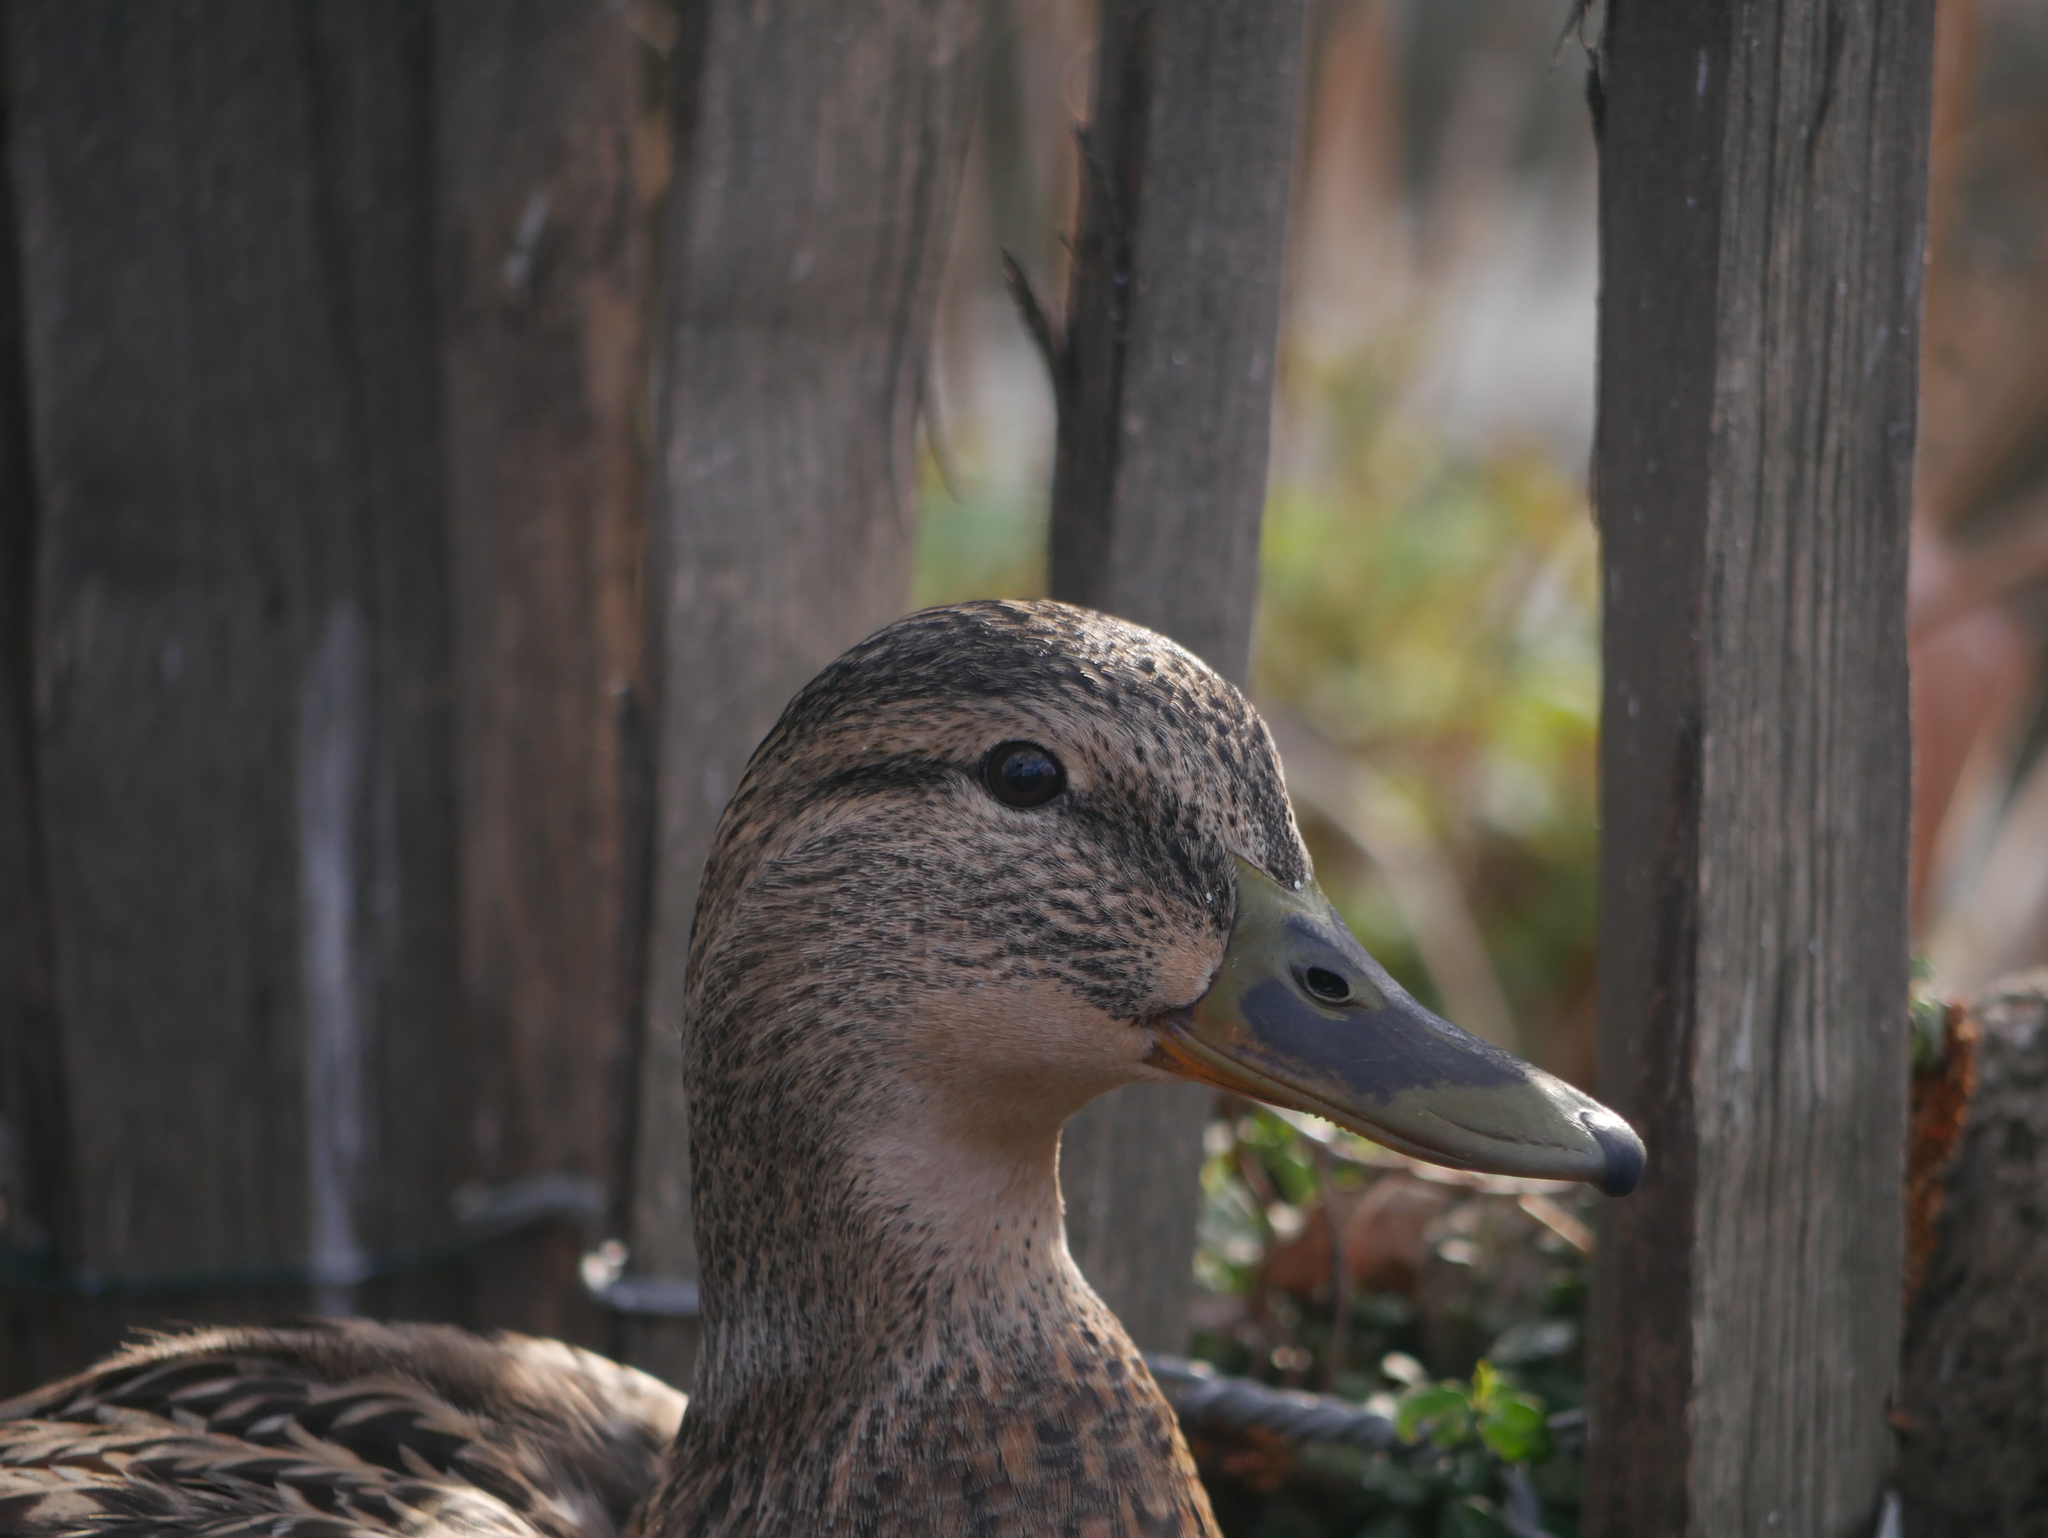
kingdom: Animalia
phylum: Chordata
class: Aves
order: Anseriformes
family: Anatidae
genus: Anas
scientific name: Anas platyrhynchos
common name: Mallard
